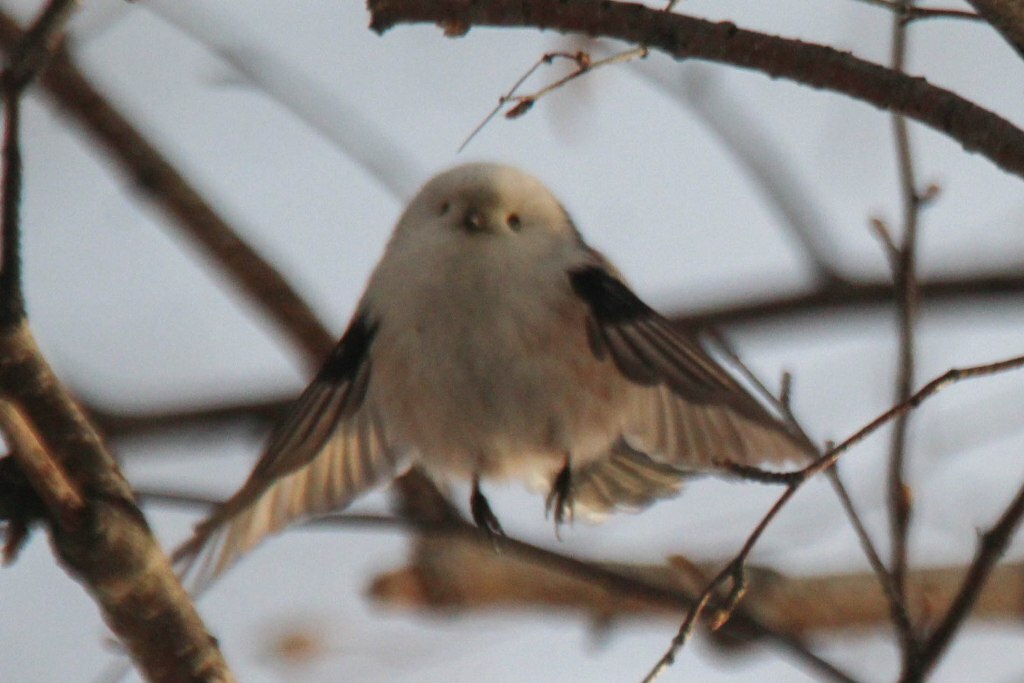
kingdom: Animalia
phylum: Chordata
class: Aves
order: Passeriformes
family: Aegithalidae
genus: Aegithalos
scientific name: Aegithalos caudatus
